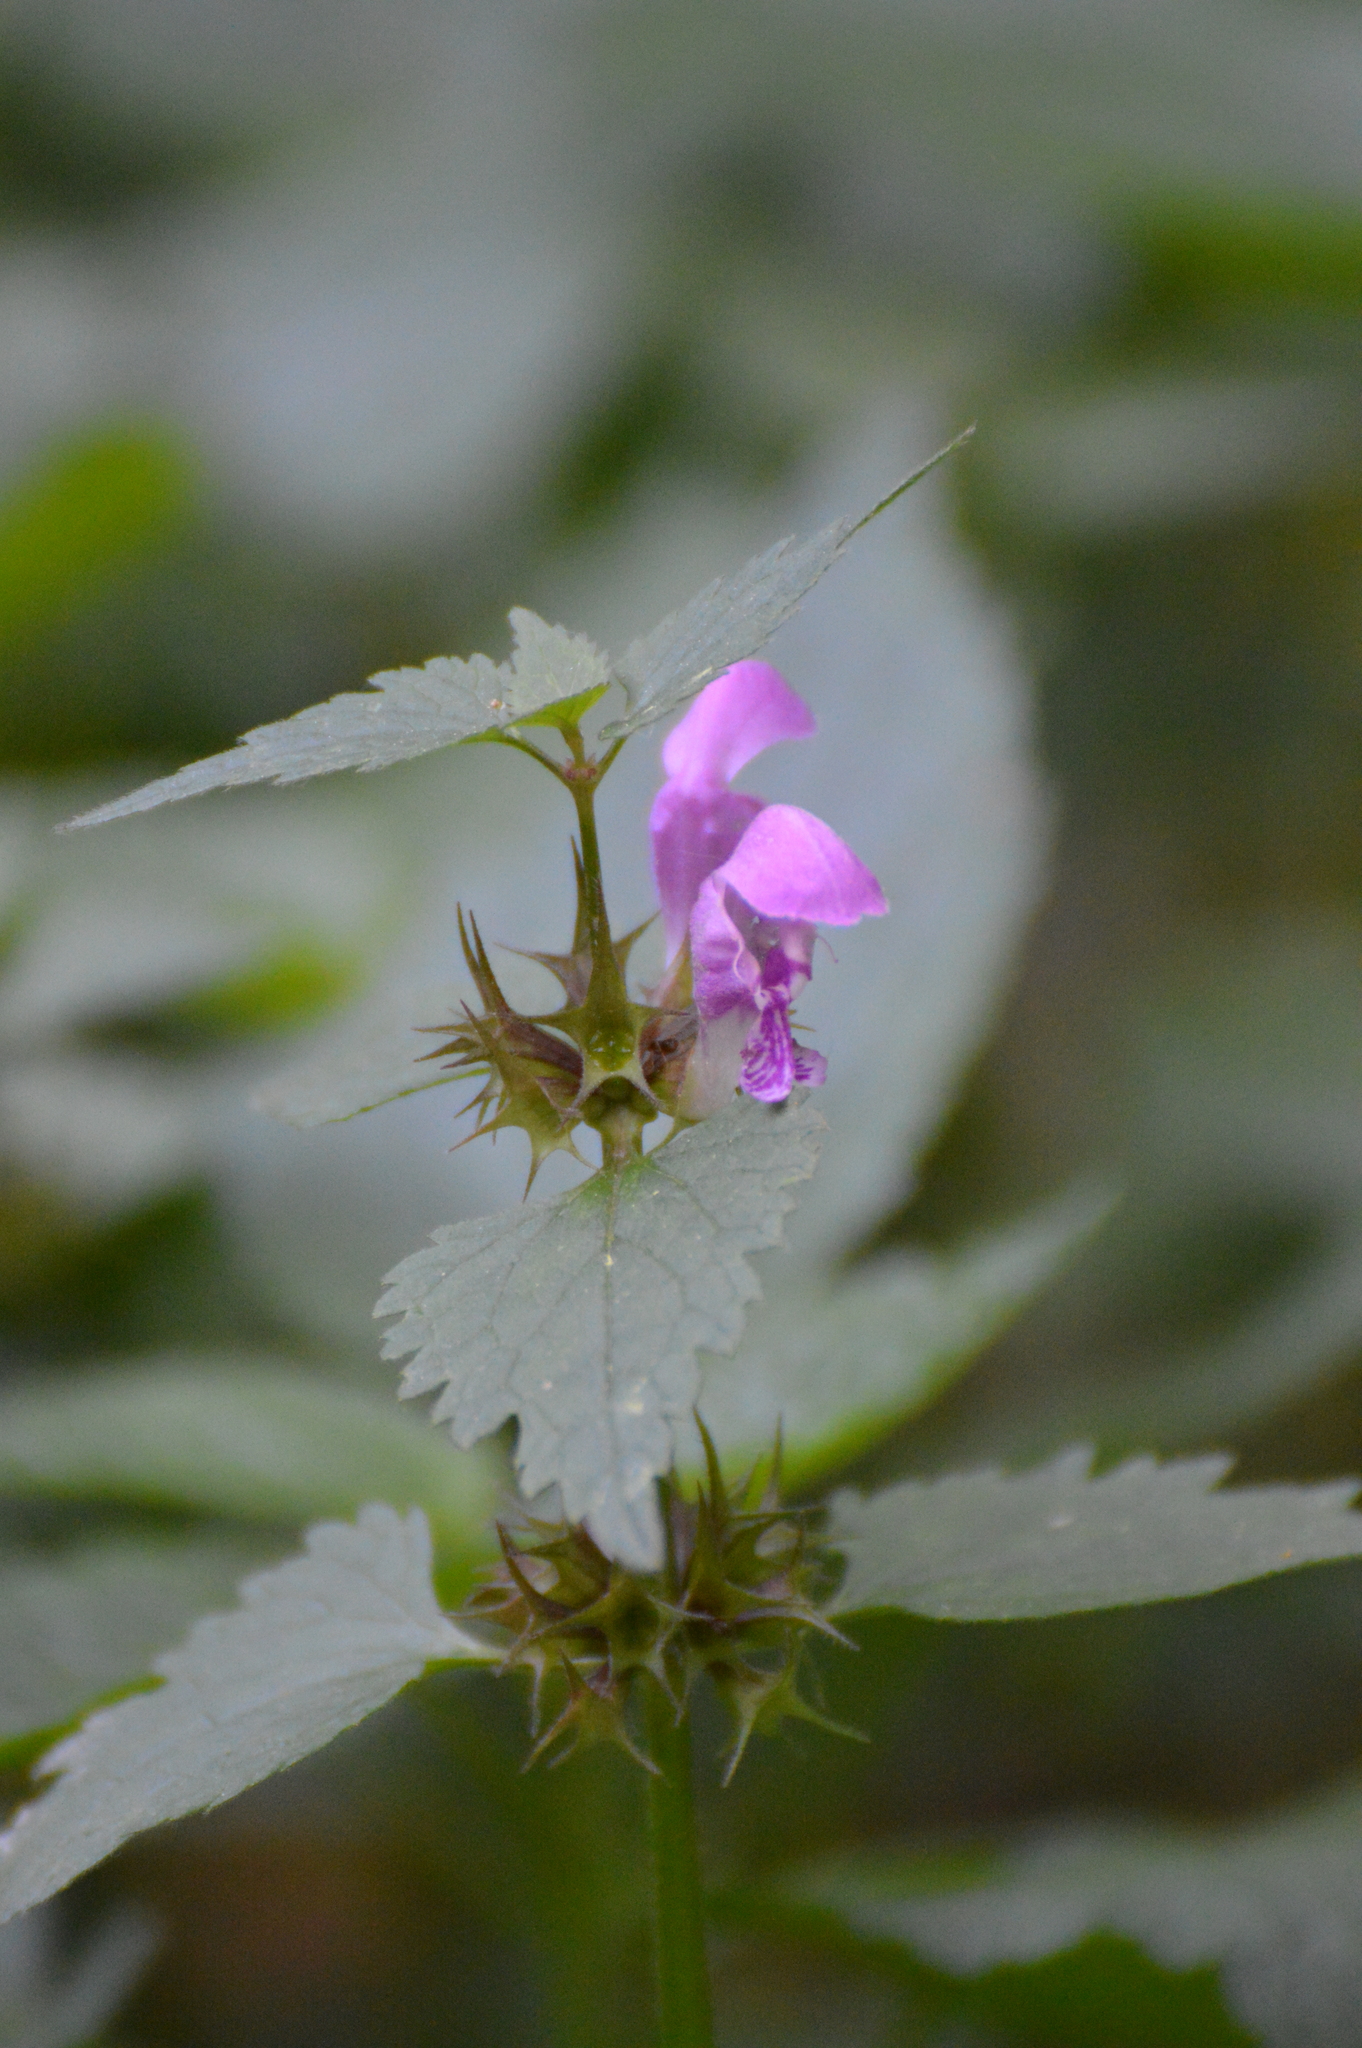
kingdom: Plantae
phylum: Tracheophyta
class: Magnoliopsida
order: Lamiales
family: Lamiaceae
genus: Lamium
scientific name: Lamium maculatum
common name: Spotted dead-nettle
